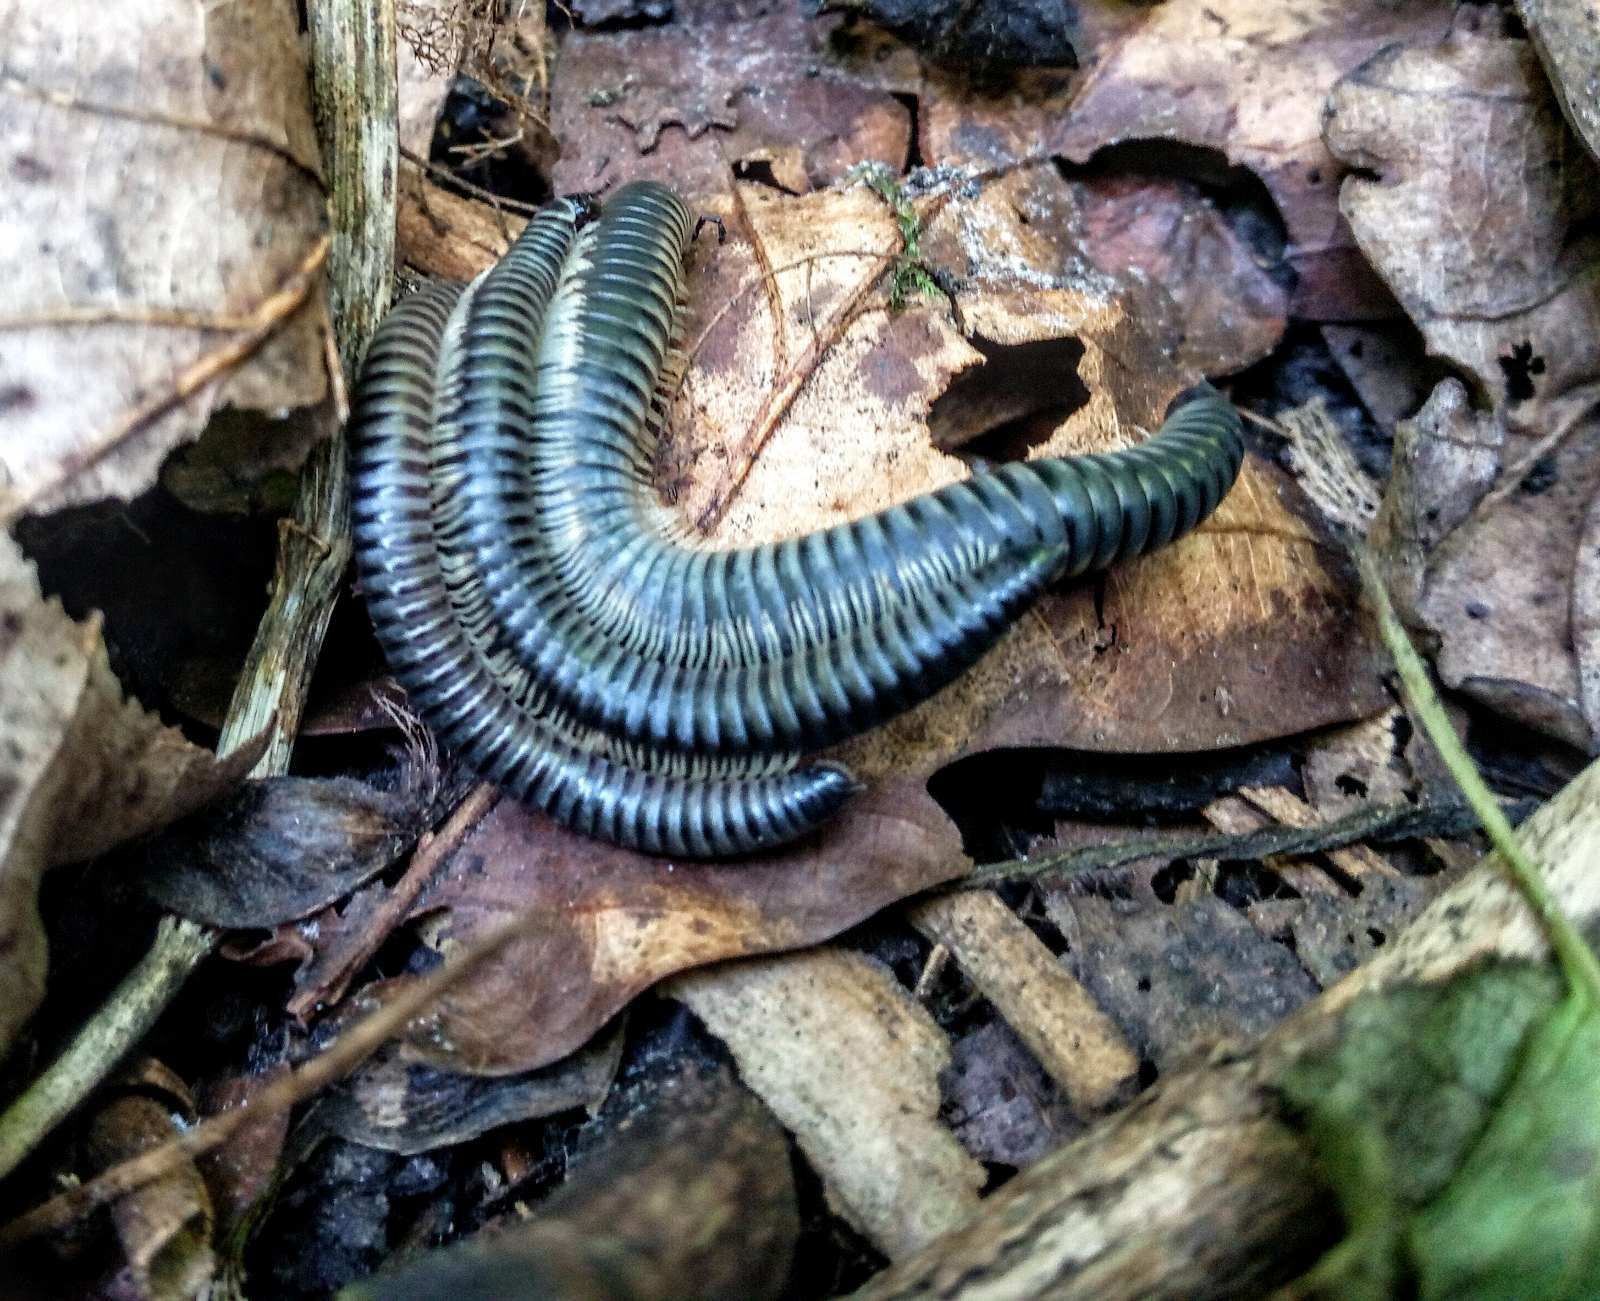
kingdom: Animalia
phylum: Arthropoda
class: Diplopoda
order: Julida
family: Julidae
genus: Rossiulus
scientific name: Rossiulus kessleri
